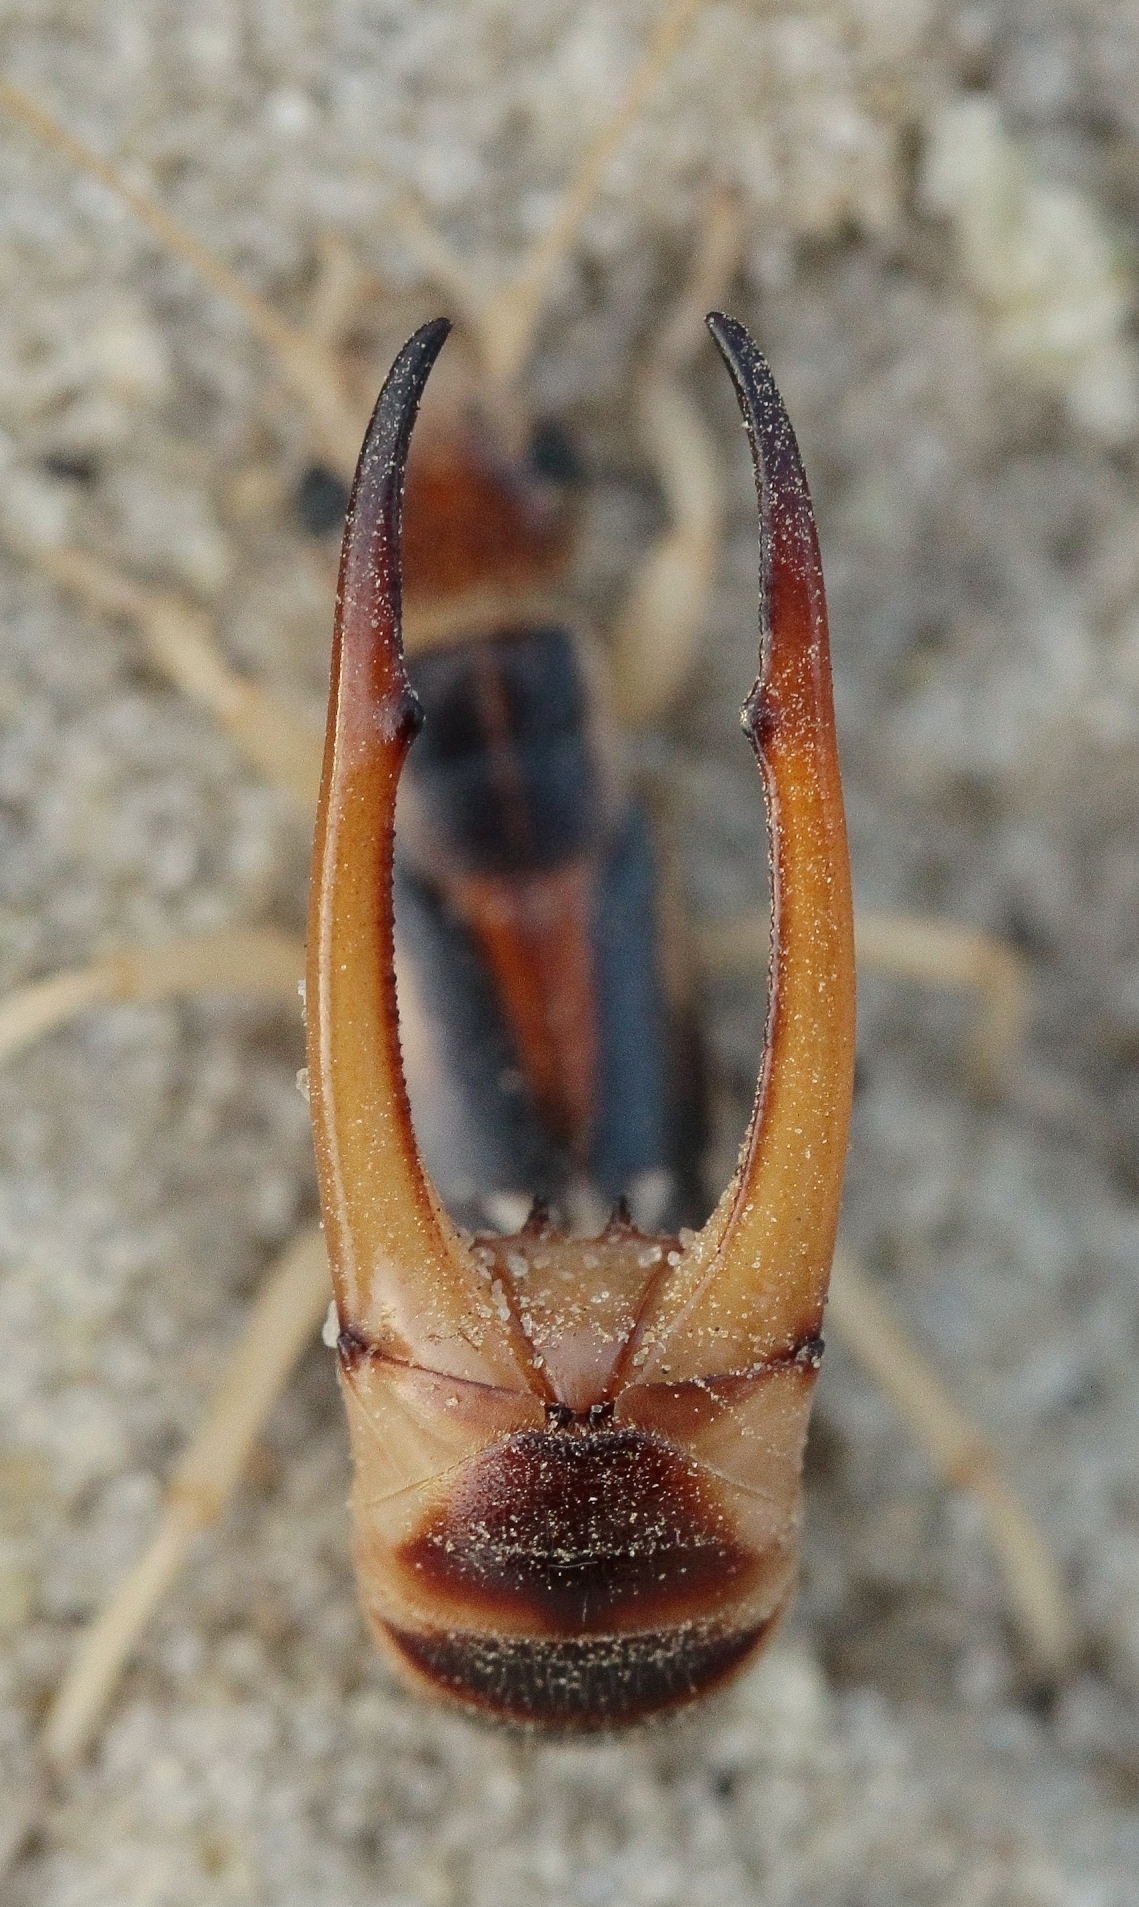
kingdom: Animalia
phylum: Arthropoda
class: Insecta
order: Dermaptera
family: Labiduridae
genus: Labidura
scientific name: Labidura riparia
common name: Striped earwig
